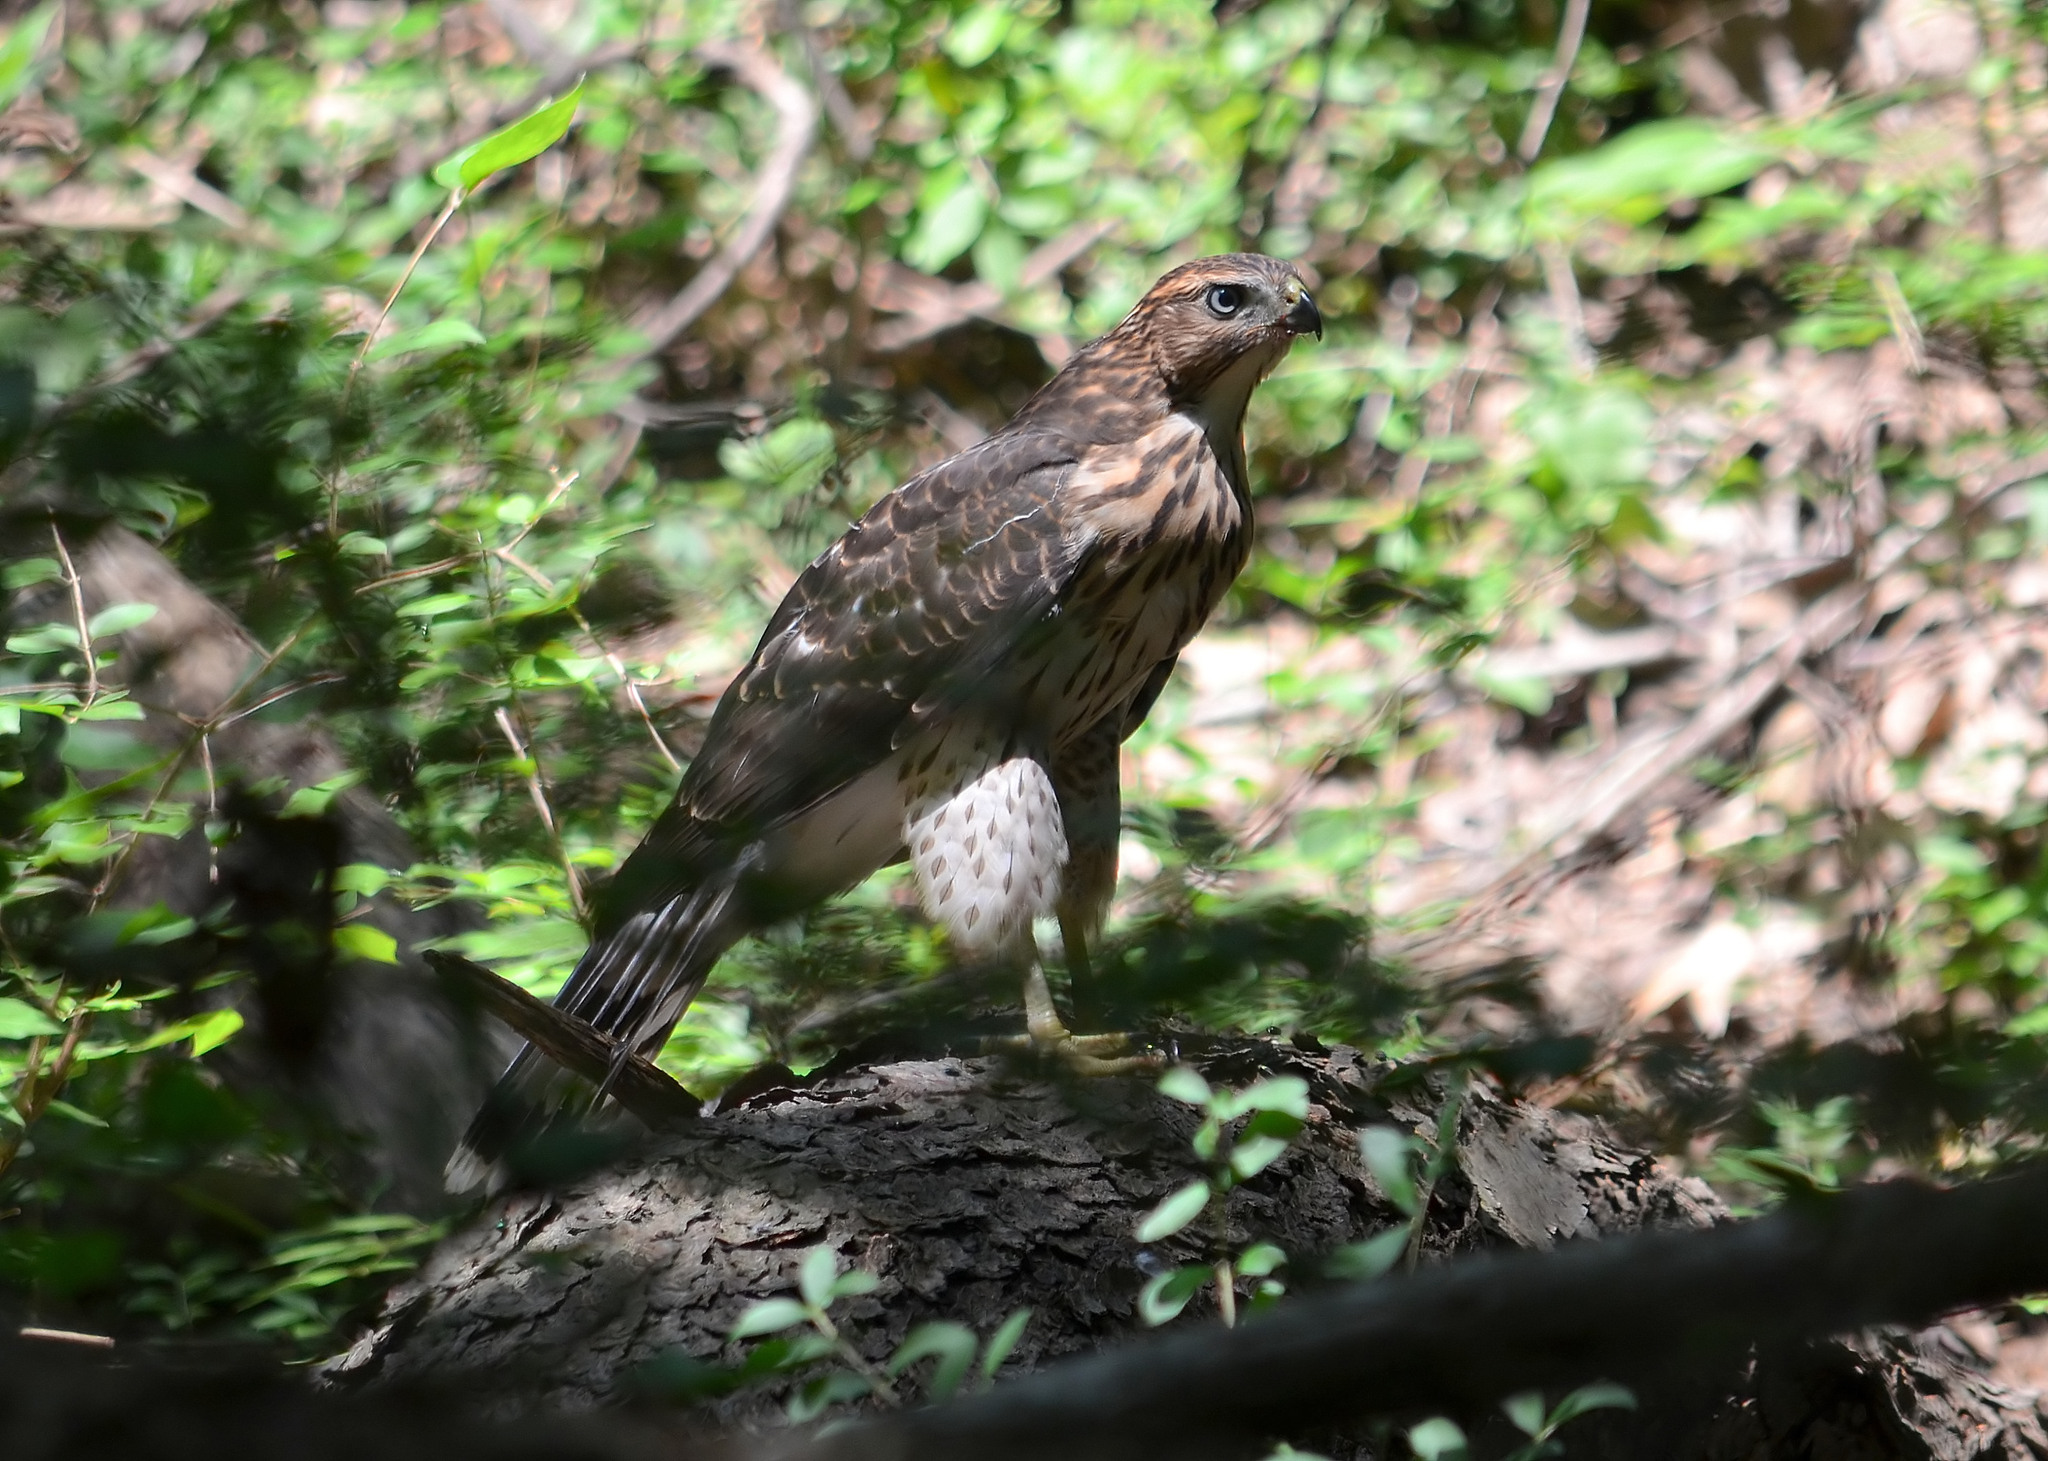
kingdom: Animalia
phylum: Chordata
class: Aves
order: Accipitriformes
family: Accipitridae
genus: Accipiter
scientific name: Accipiter cooperii
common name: Cooper's hawk
